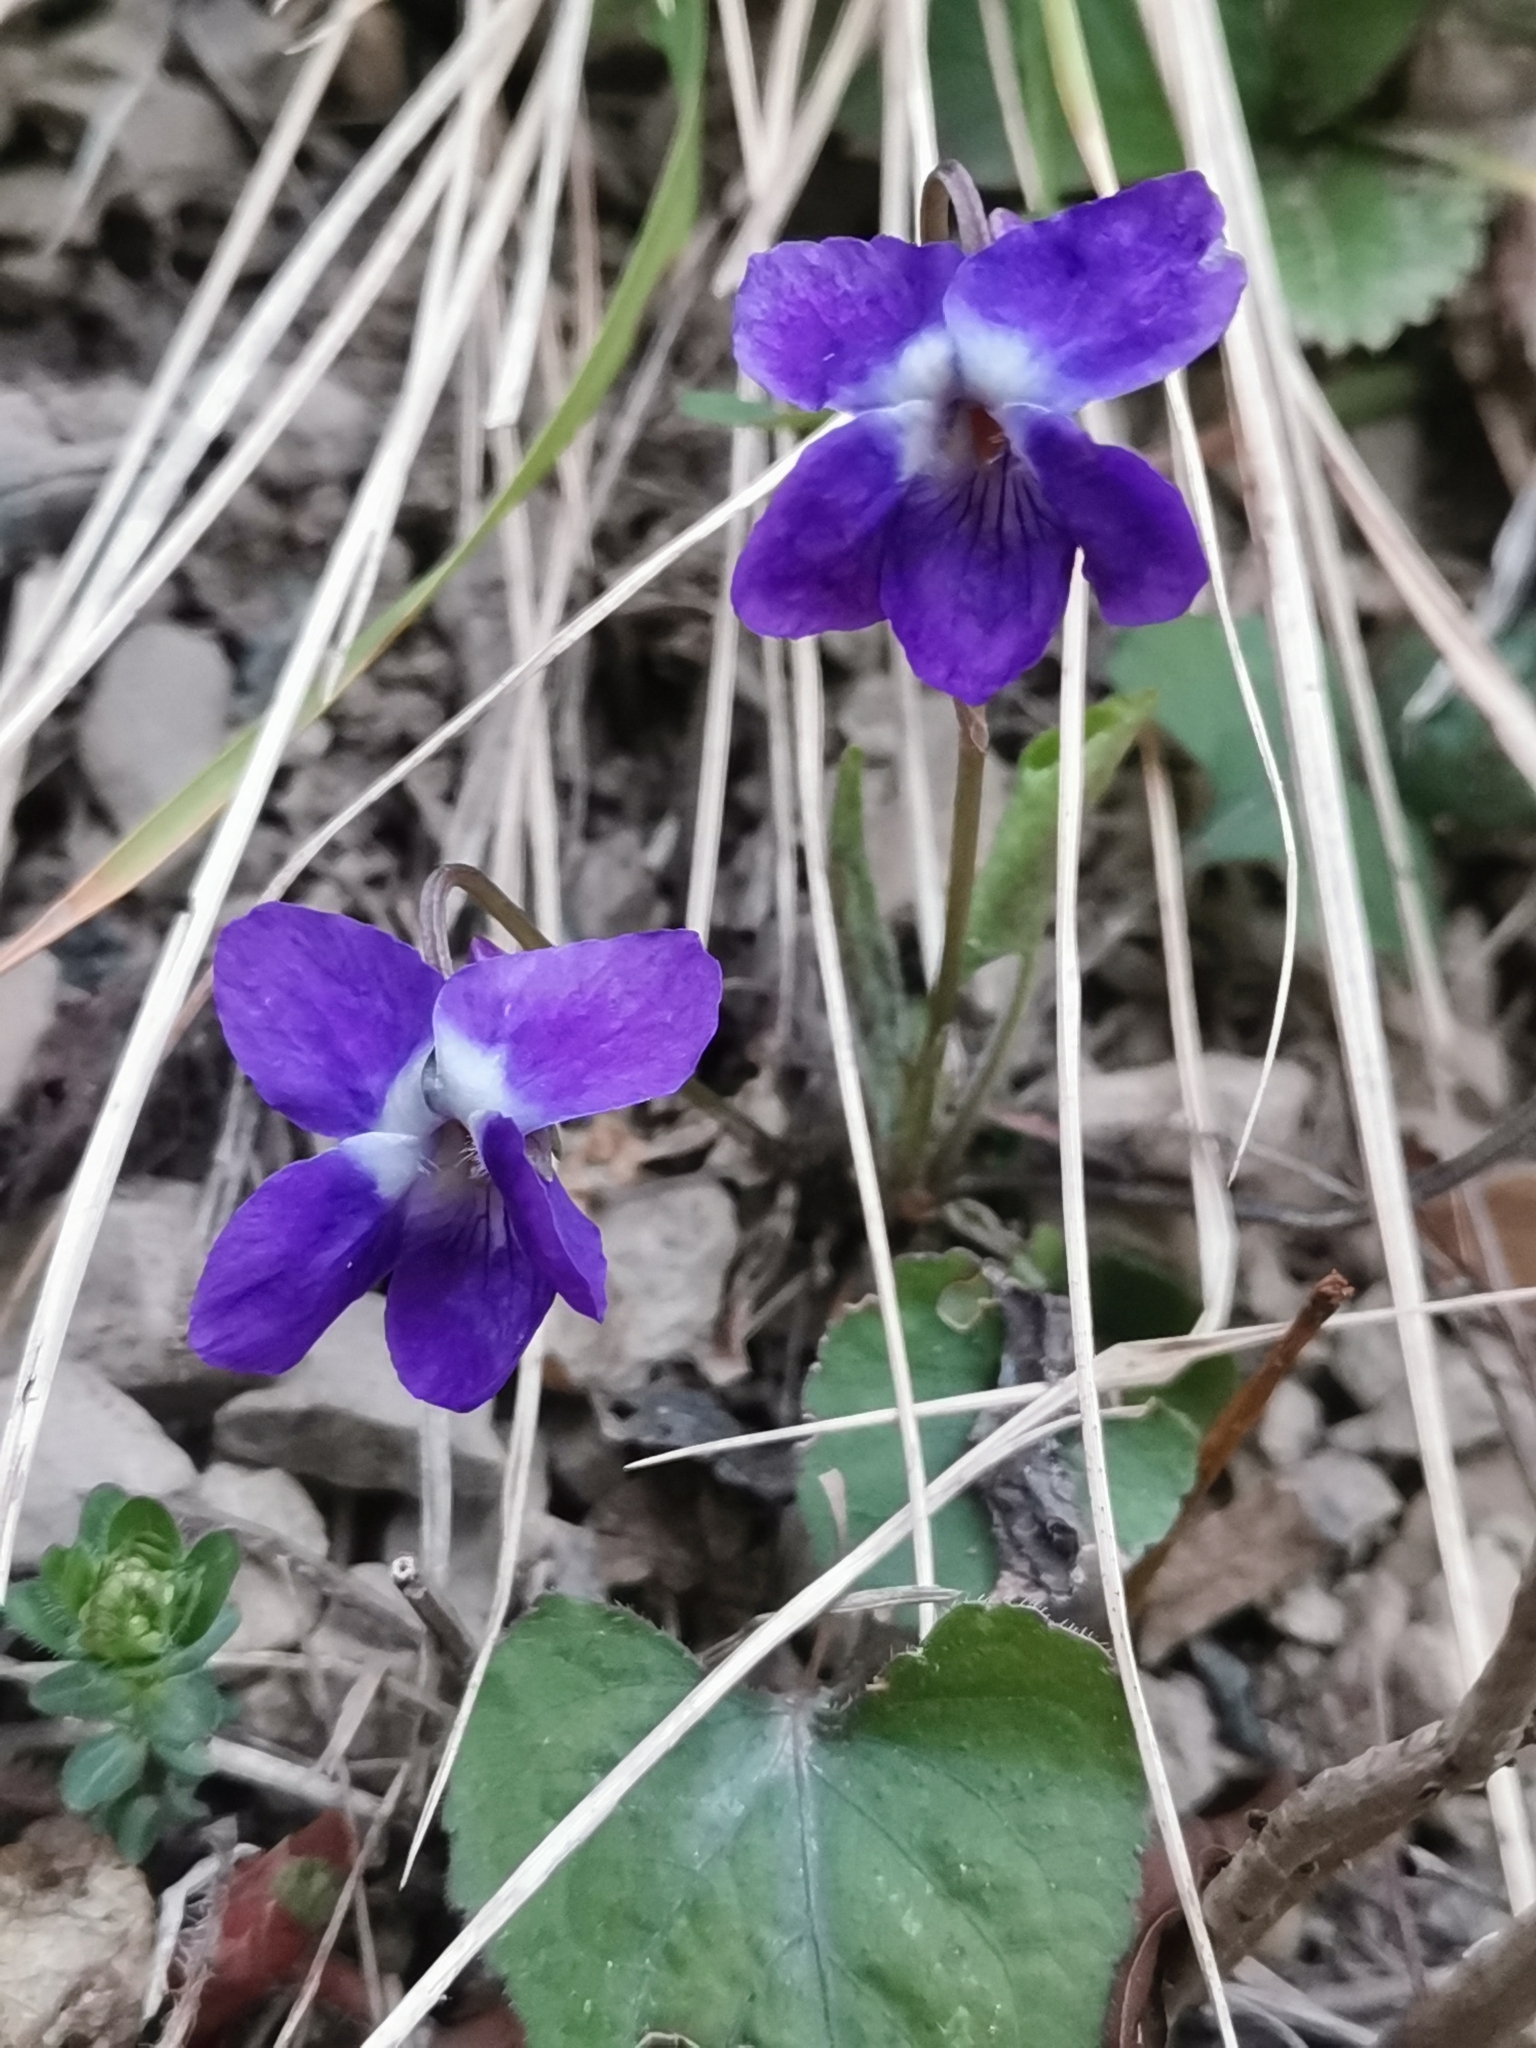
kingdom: Plantae
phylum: Tracheophyta
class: Magnoliopsida
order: Malpighiales
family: Violaceae
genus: Viola
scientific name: Viola suavis
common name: Russian violet
